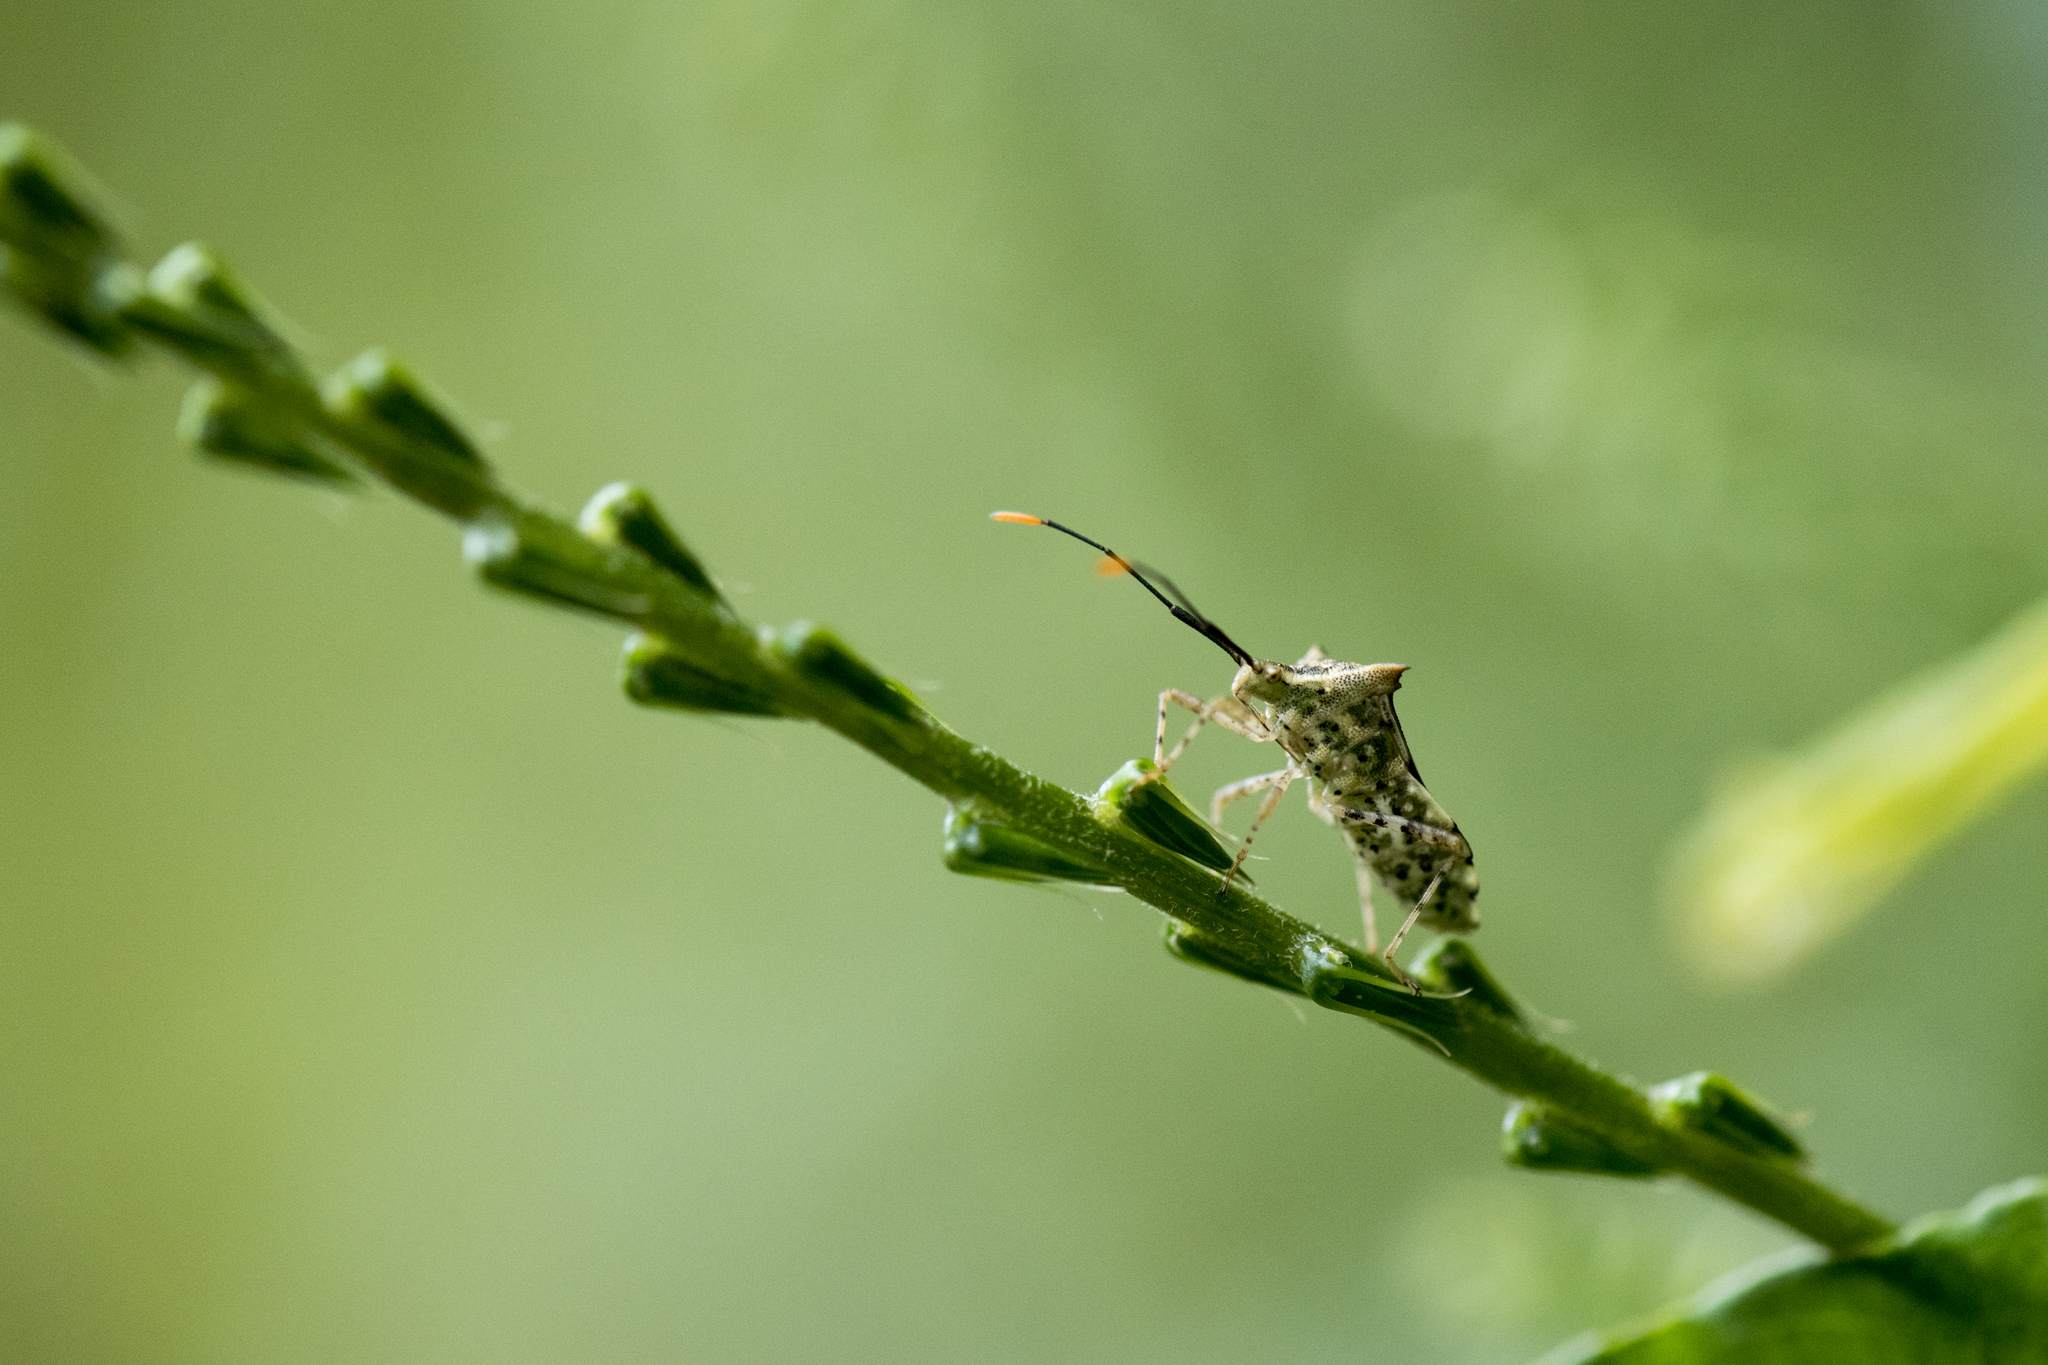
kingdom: Animalia
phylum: Arthropoda
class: Insecta
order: Hemiptera
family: Coreidae
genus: Cletomorpha
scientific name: Cletomorpha simulans
